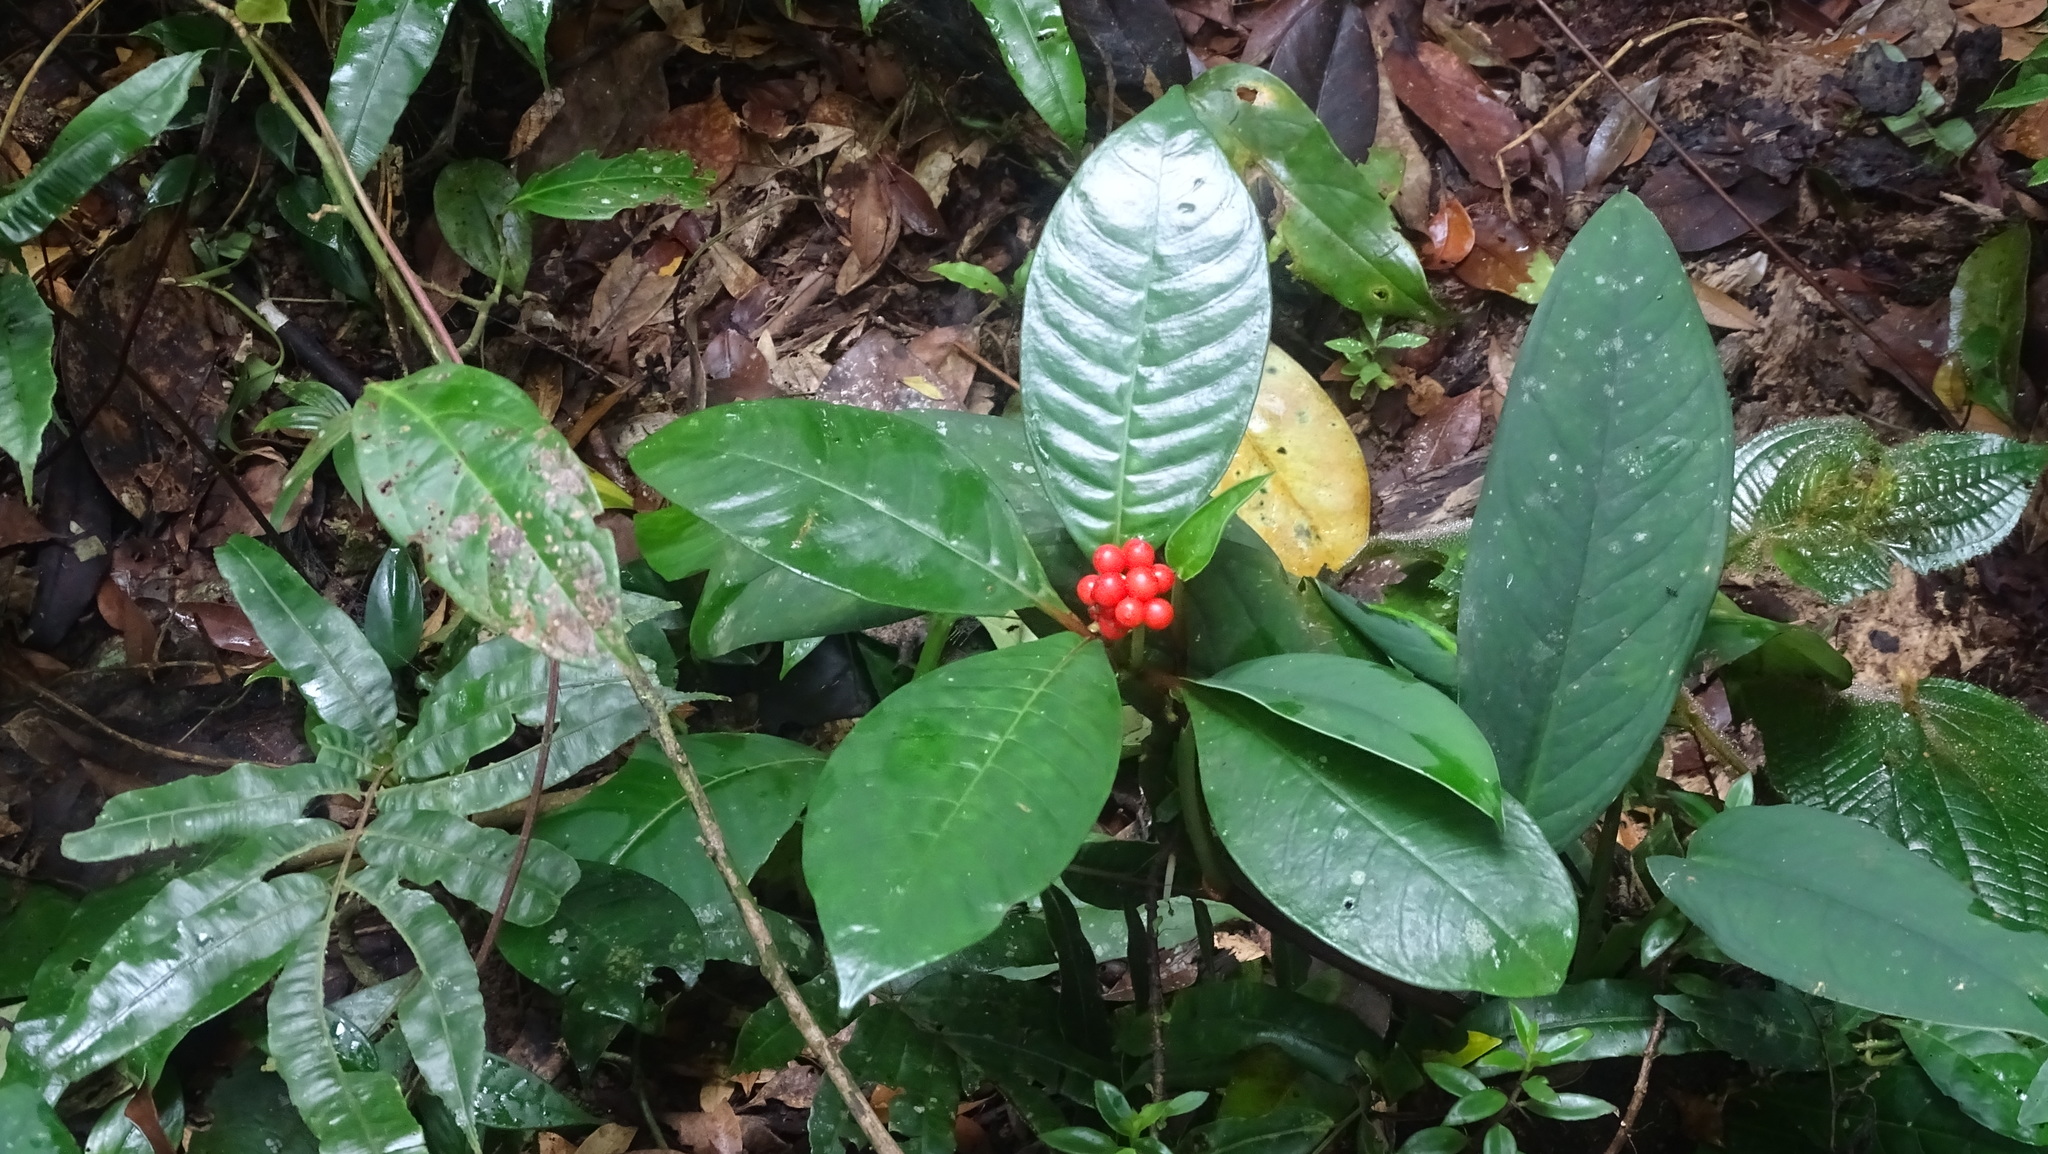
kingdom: Plantae
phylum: Tracheophyta
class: Magnoliopsida
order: Gentianales
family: Rubiaceae
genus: Notopleura
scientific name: Notopleura uliginosa
